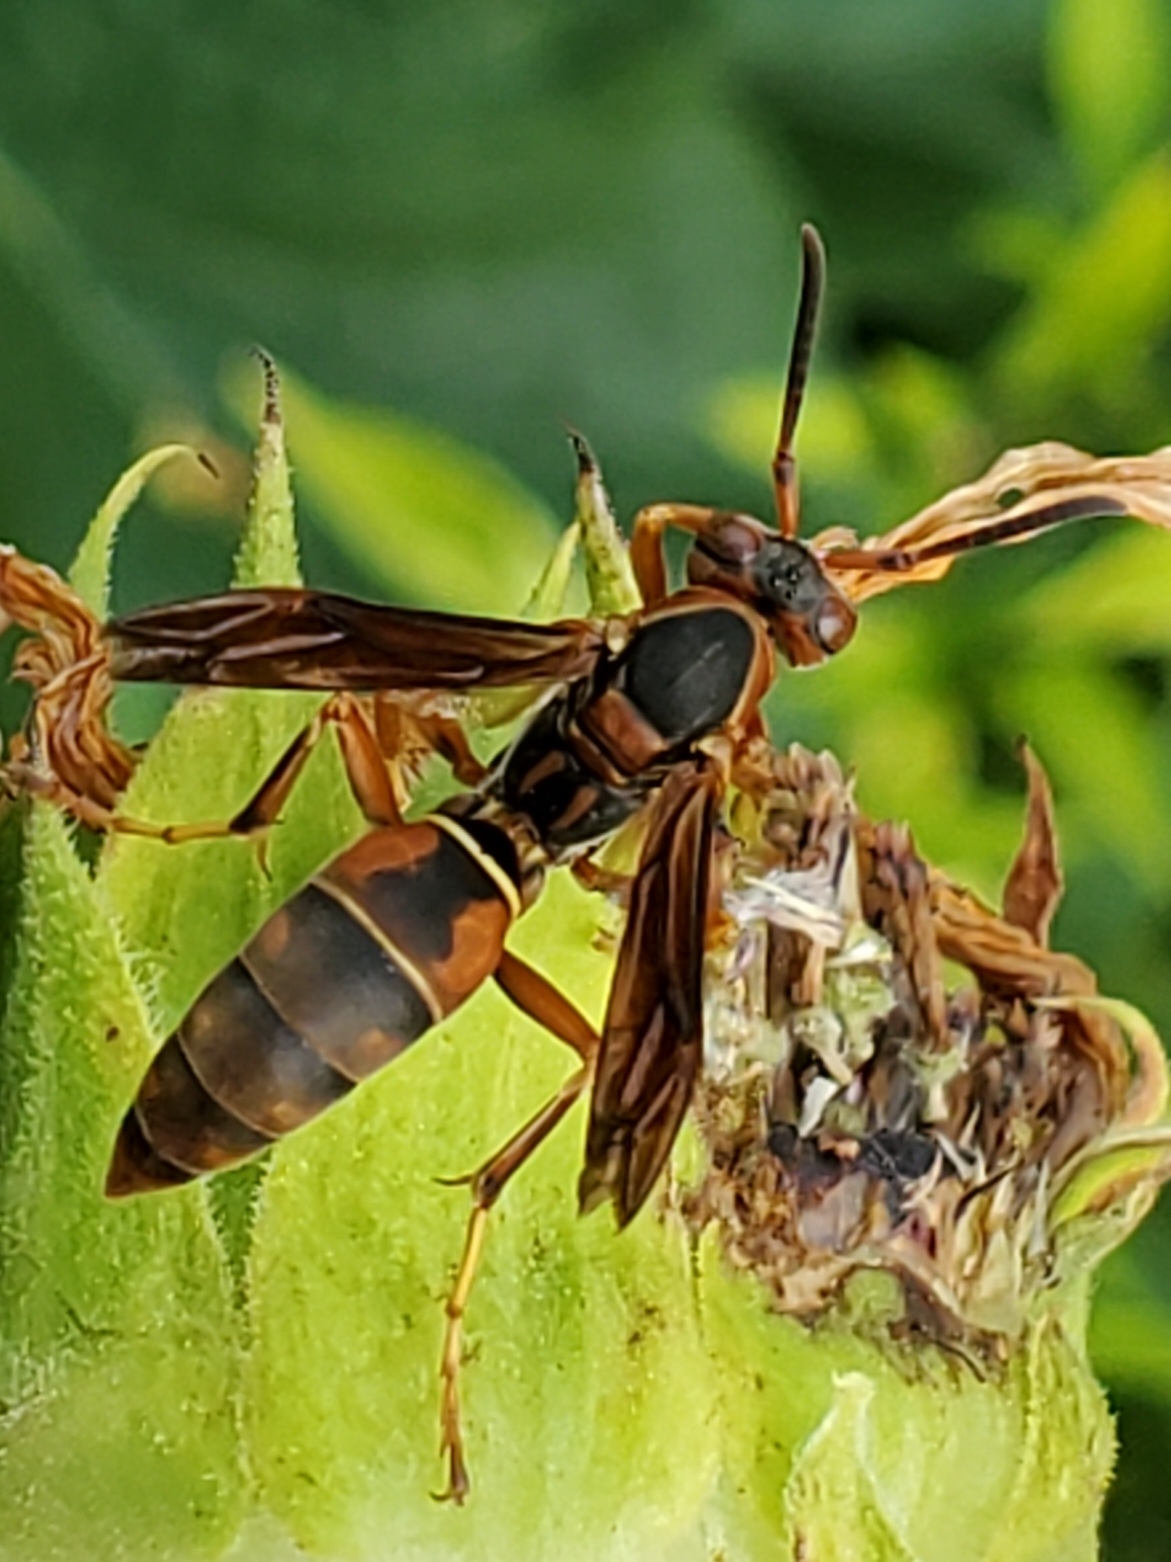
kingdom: Animalia
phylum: Arthropoda
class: Insecta
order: Hymenoptera
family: Eumenidae
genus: Polistes
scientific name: Polistes fuscatus
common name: Dark paper wasp
